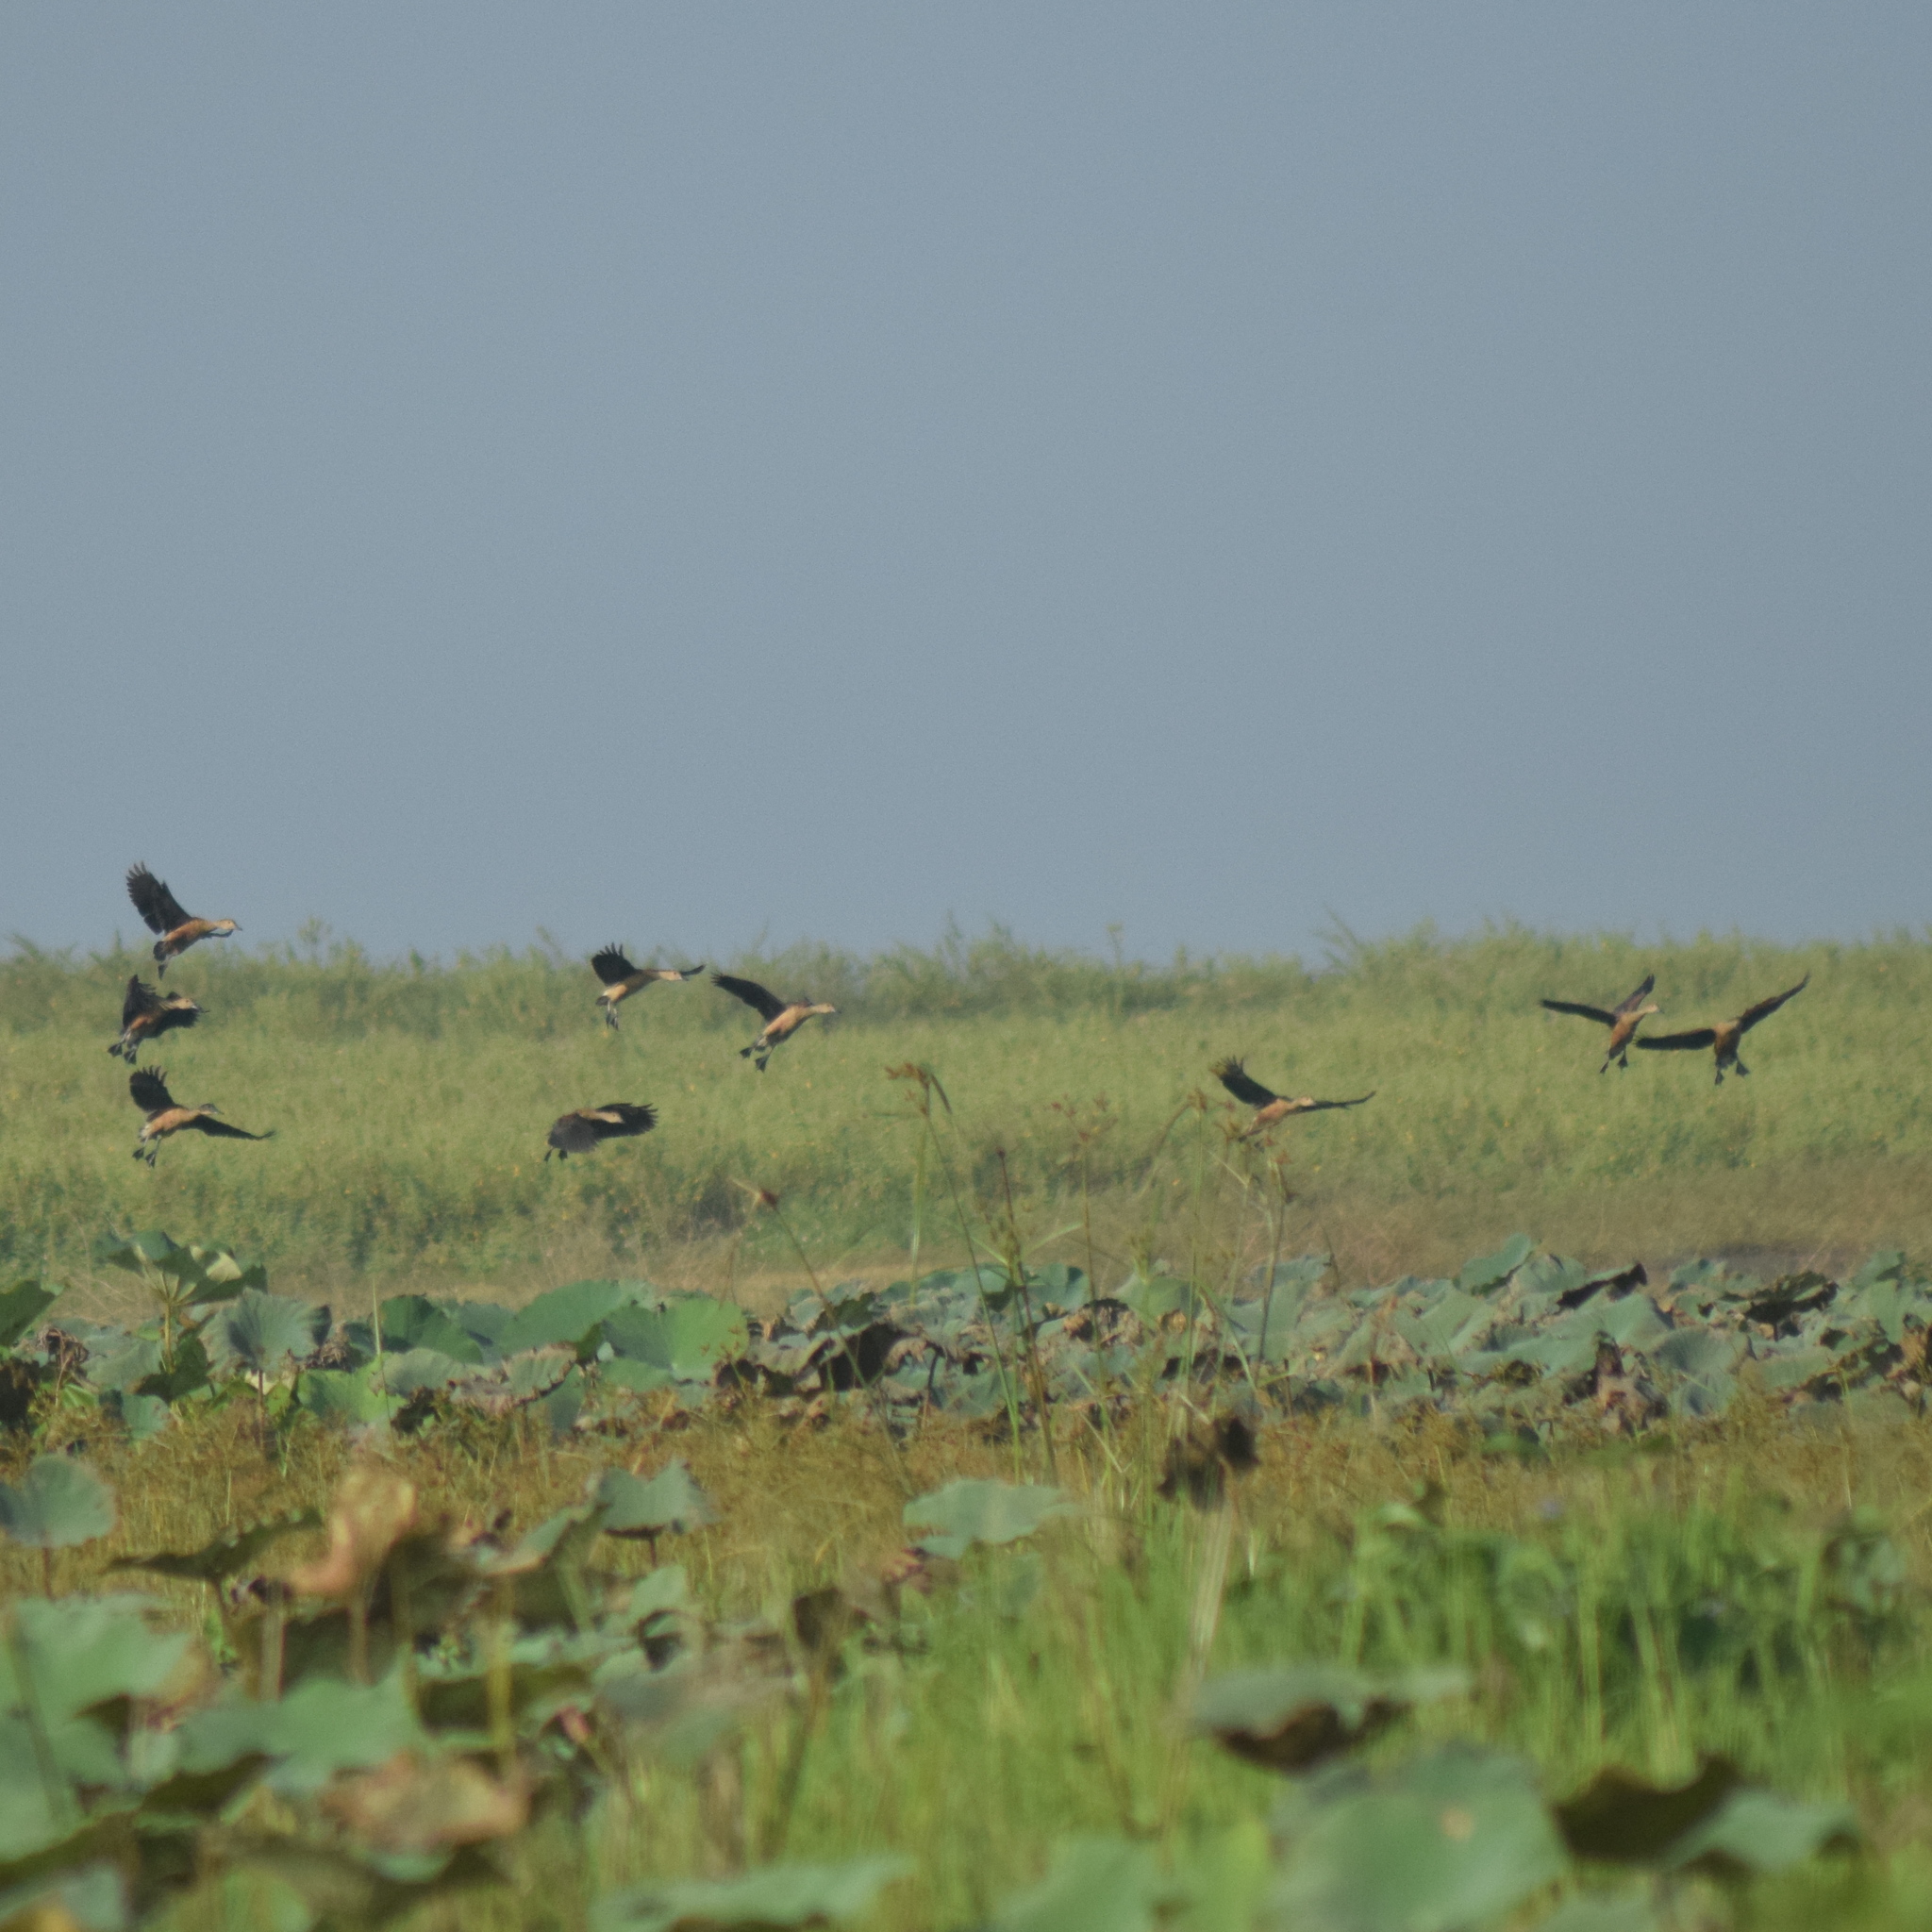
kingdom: Animalia
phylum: Chordata
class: Aves
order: Anseriformes
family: Anatidae
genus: Dendrocygna
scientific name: Dendrocygna javanica
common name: Lesser whistling-duck
